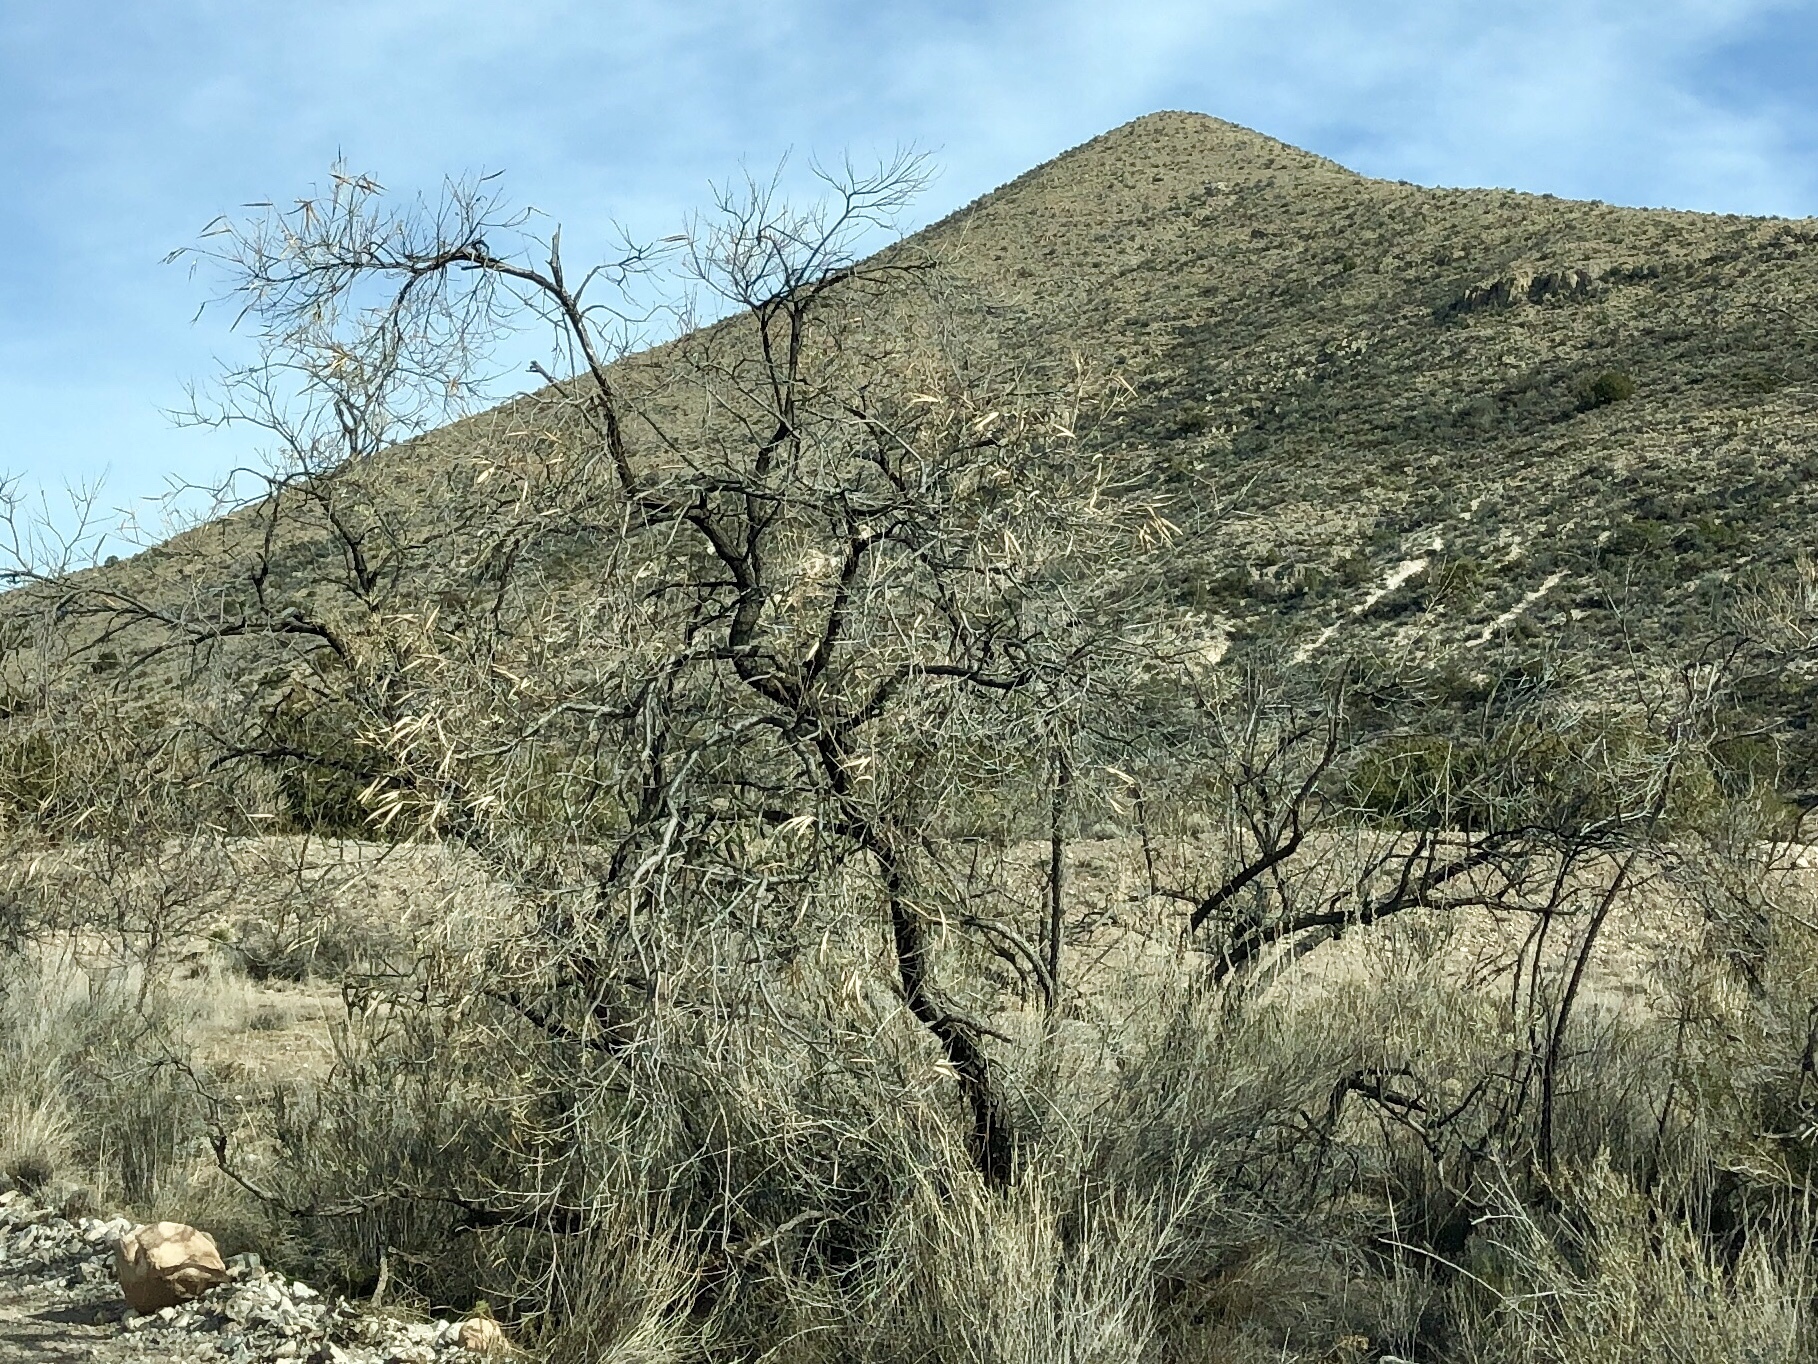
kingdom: Plantae
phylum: Tracheophyta
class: Magnoliopsida
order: Lamiales
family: Bignoniaceae
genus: Chilopsis
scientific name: Chilopsis linearis
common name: Desert-willow
